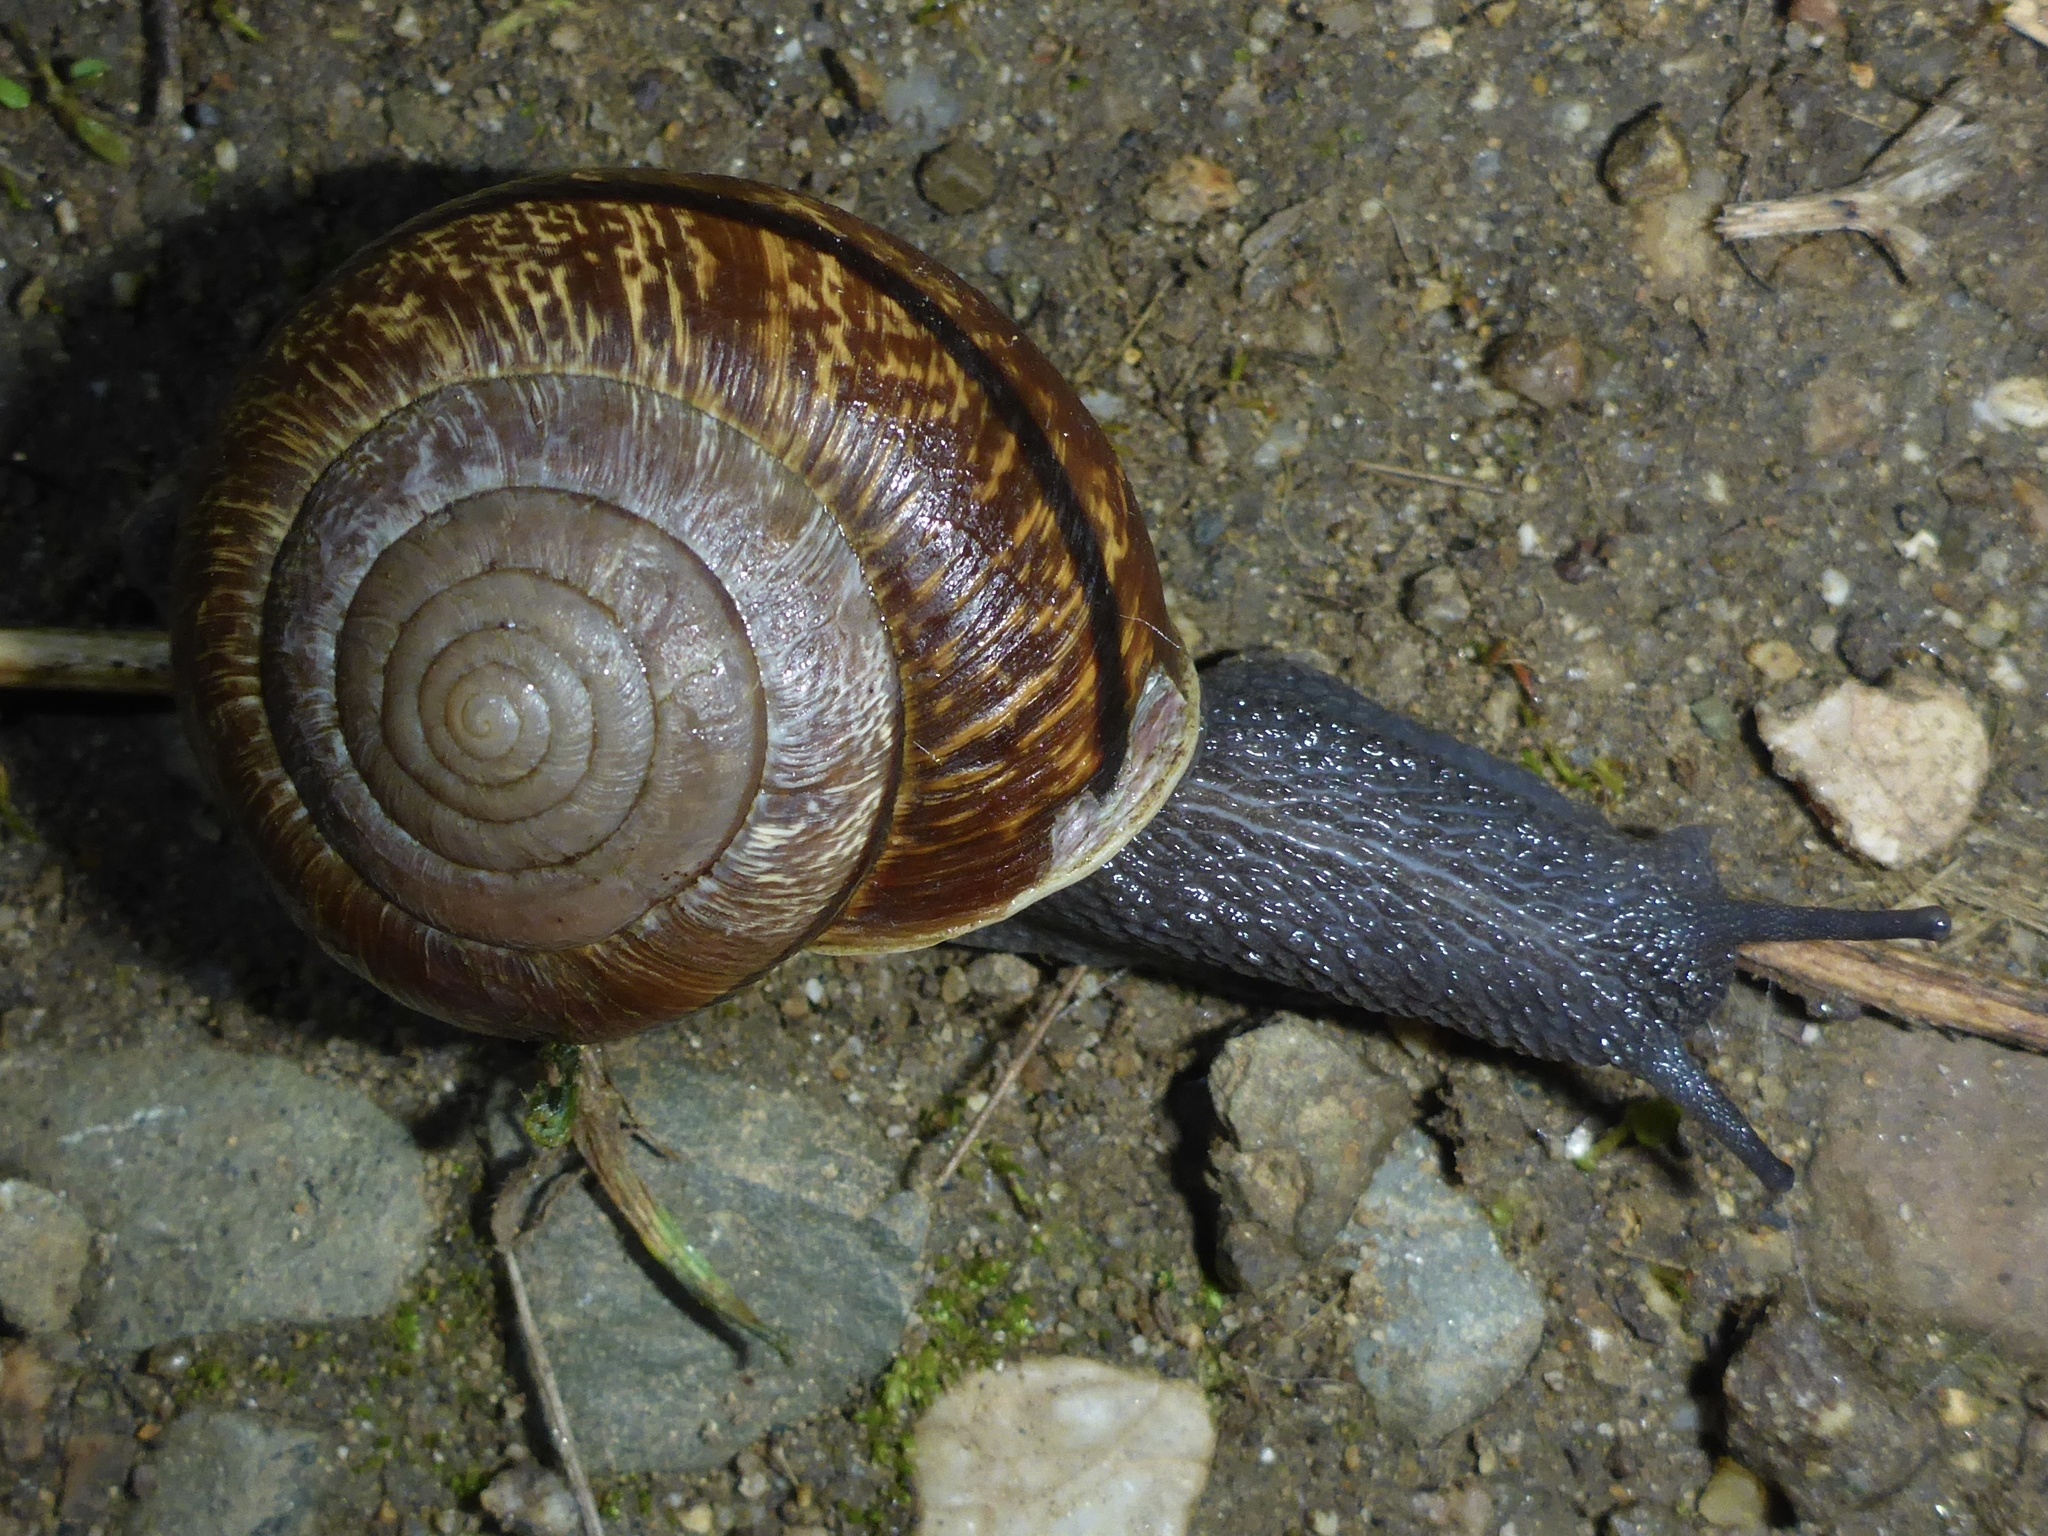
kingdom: Animalia
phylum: Mollusca
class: Gastropoda
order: Stylommatophora
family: Xanthonychidae
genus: Helminthoglypta
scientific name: Helminthoglypta arrosa
